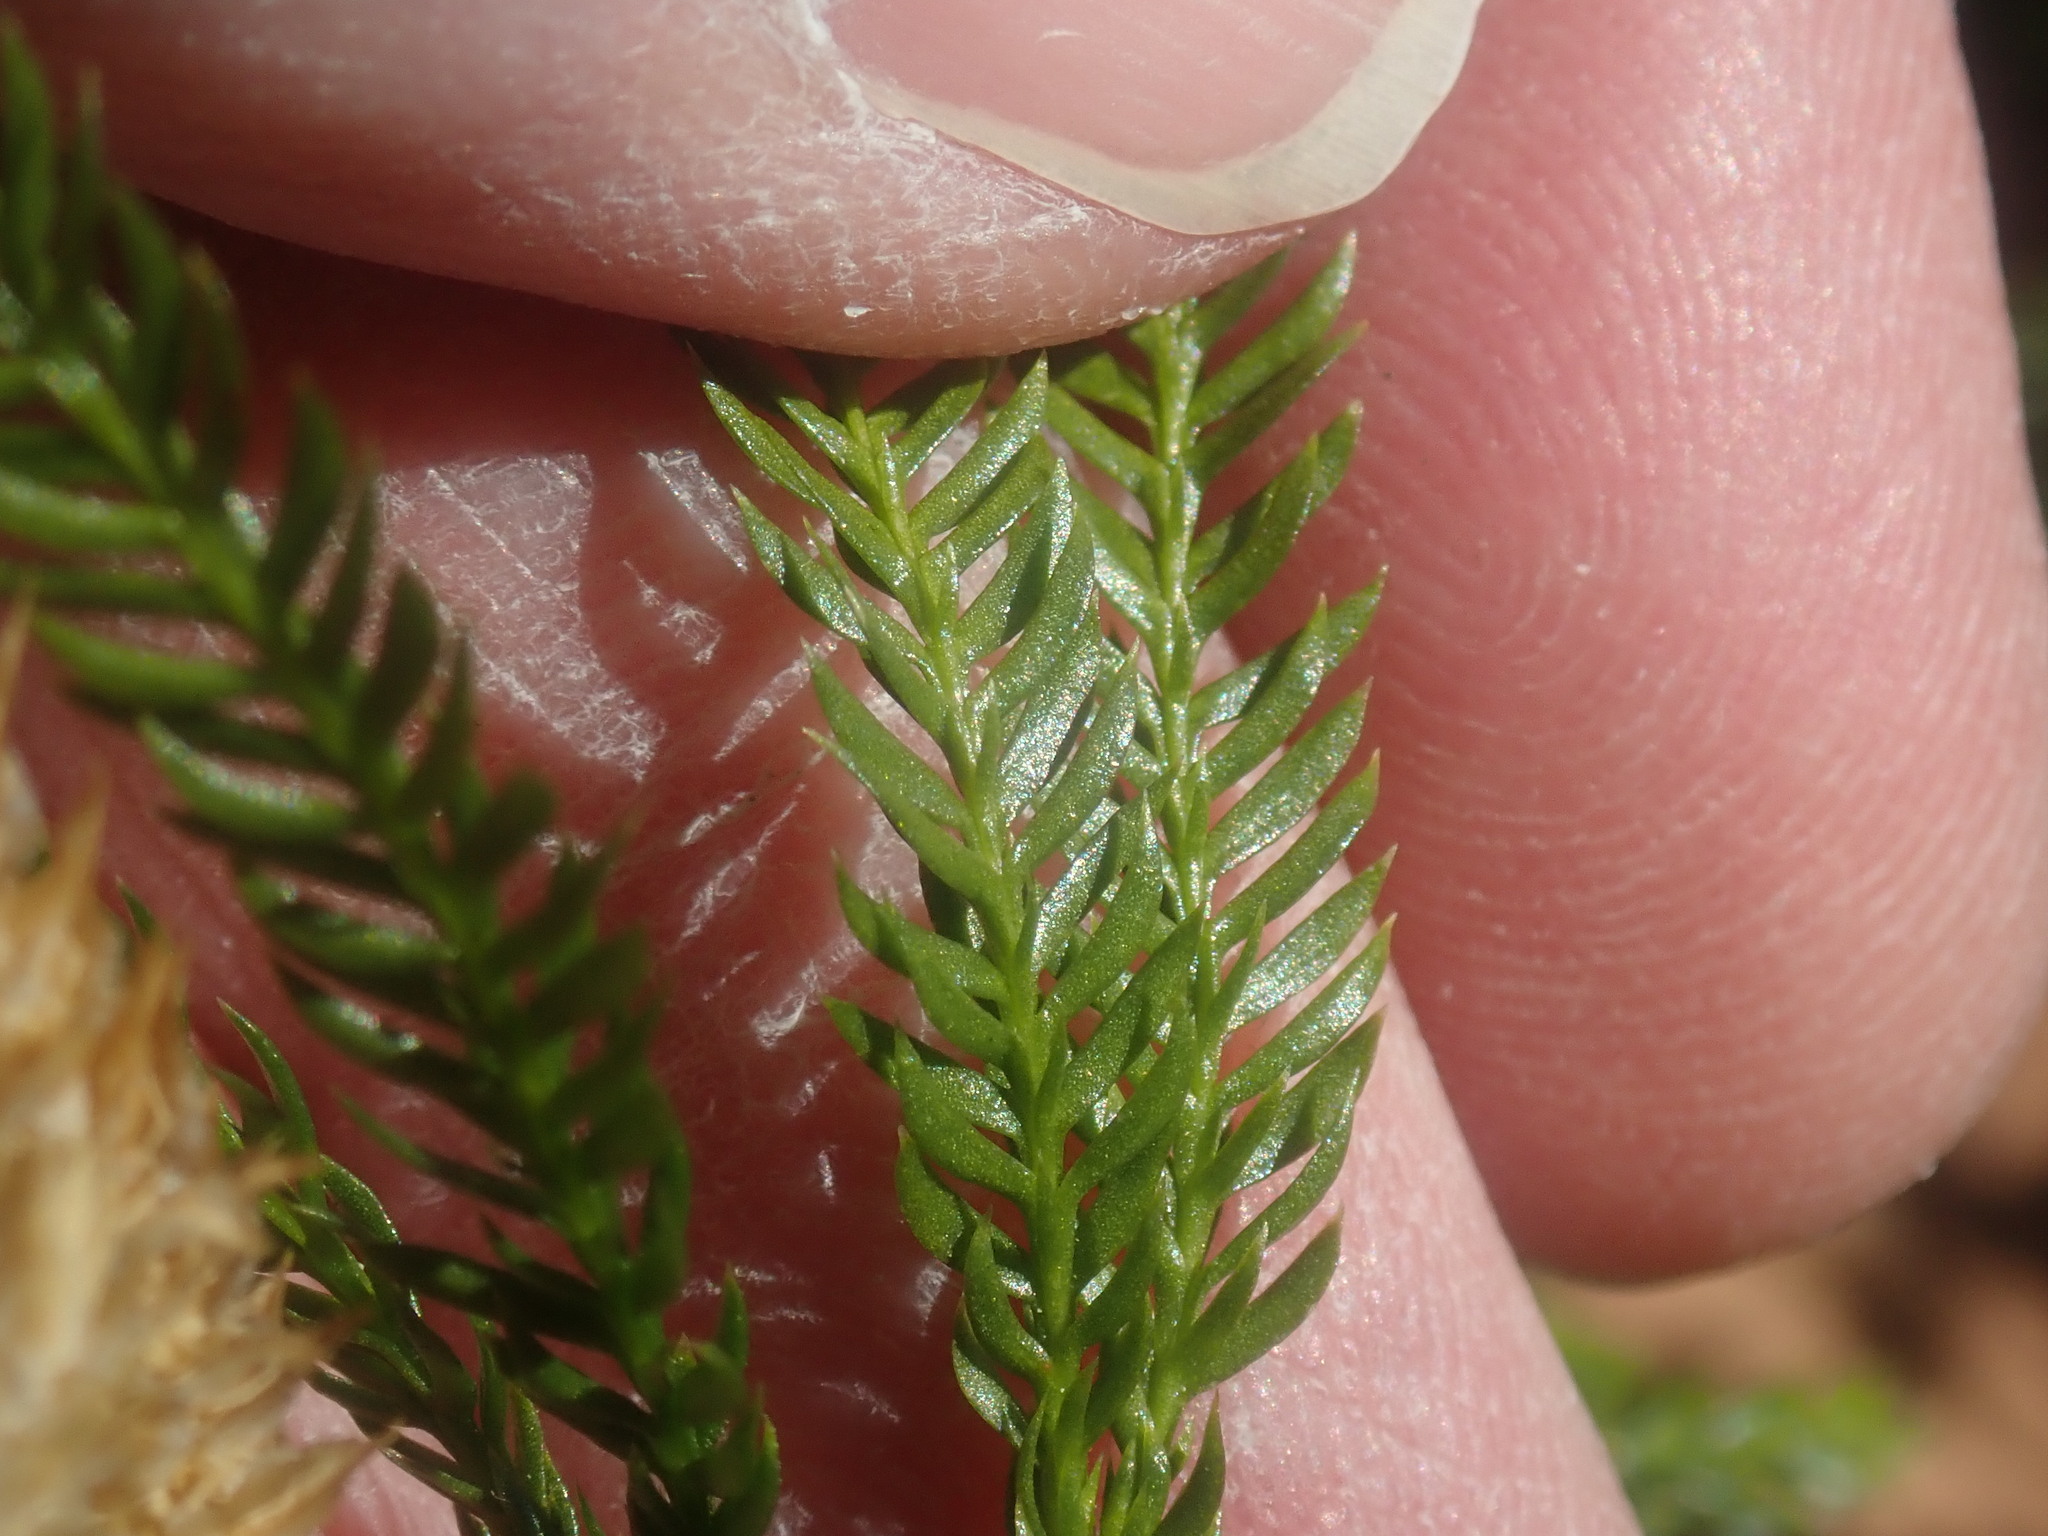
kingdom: Plantae
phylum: Tracheophyta
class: Lycopodiopsida
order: Lycopodiales
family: Lycopodiaceae
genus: Dendrolycopodium
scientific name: Dendrolycopodium obscurum
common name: Common ground-pine
